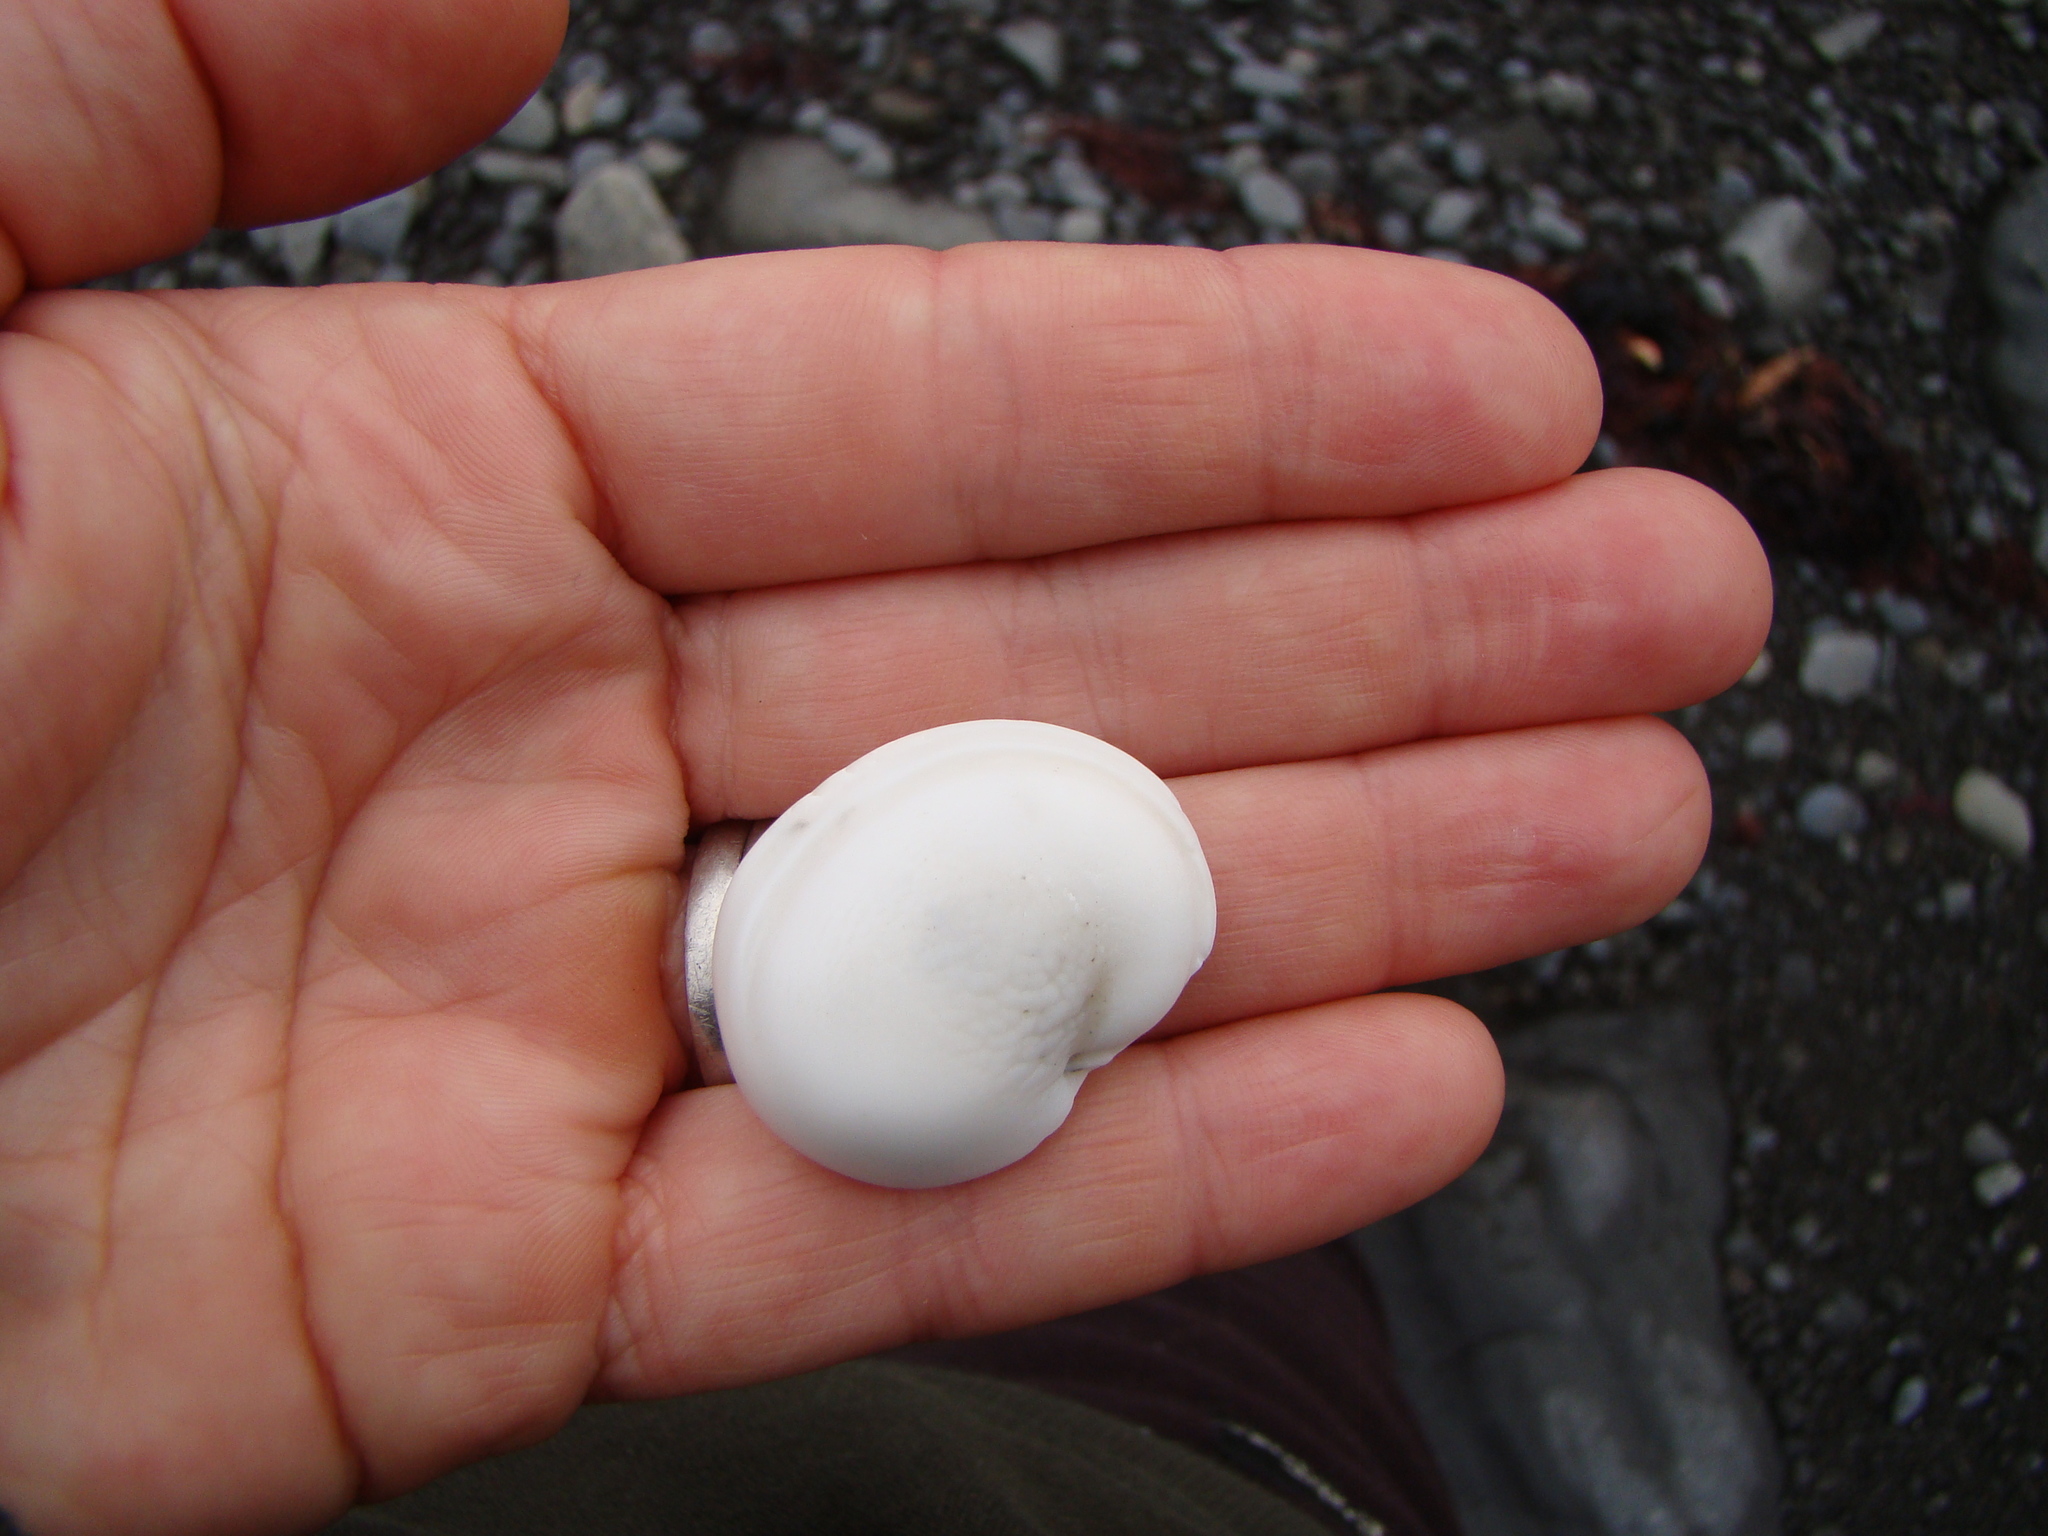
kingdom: Animalia
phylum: Mollusca
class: Gastropoda
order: Trochida
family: Turbinidae
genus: Modelia
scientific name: Modelia granosa
